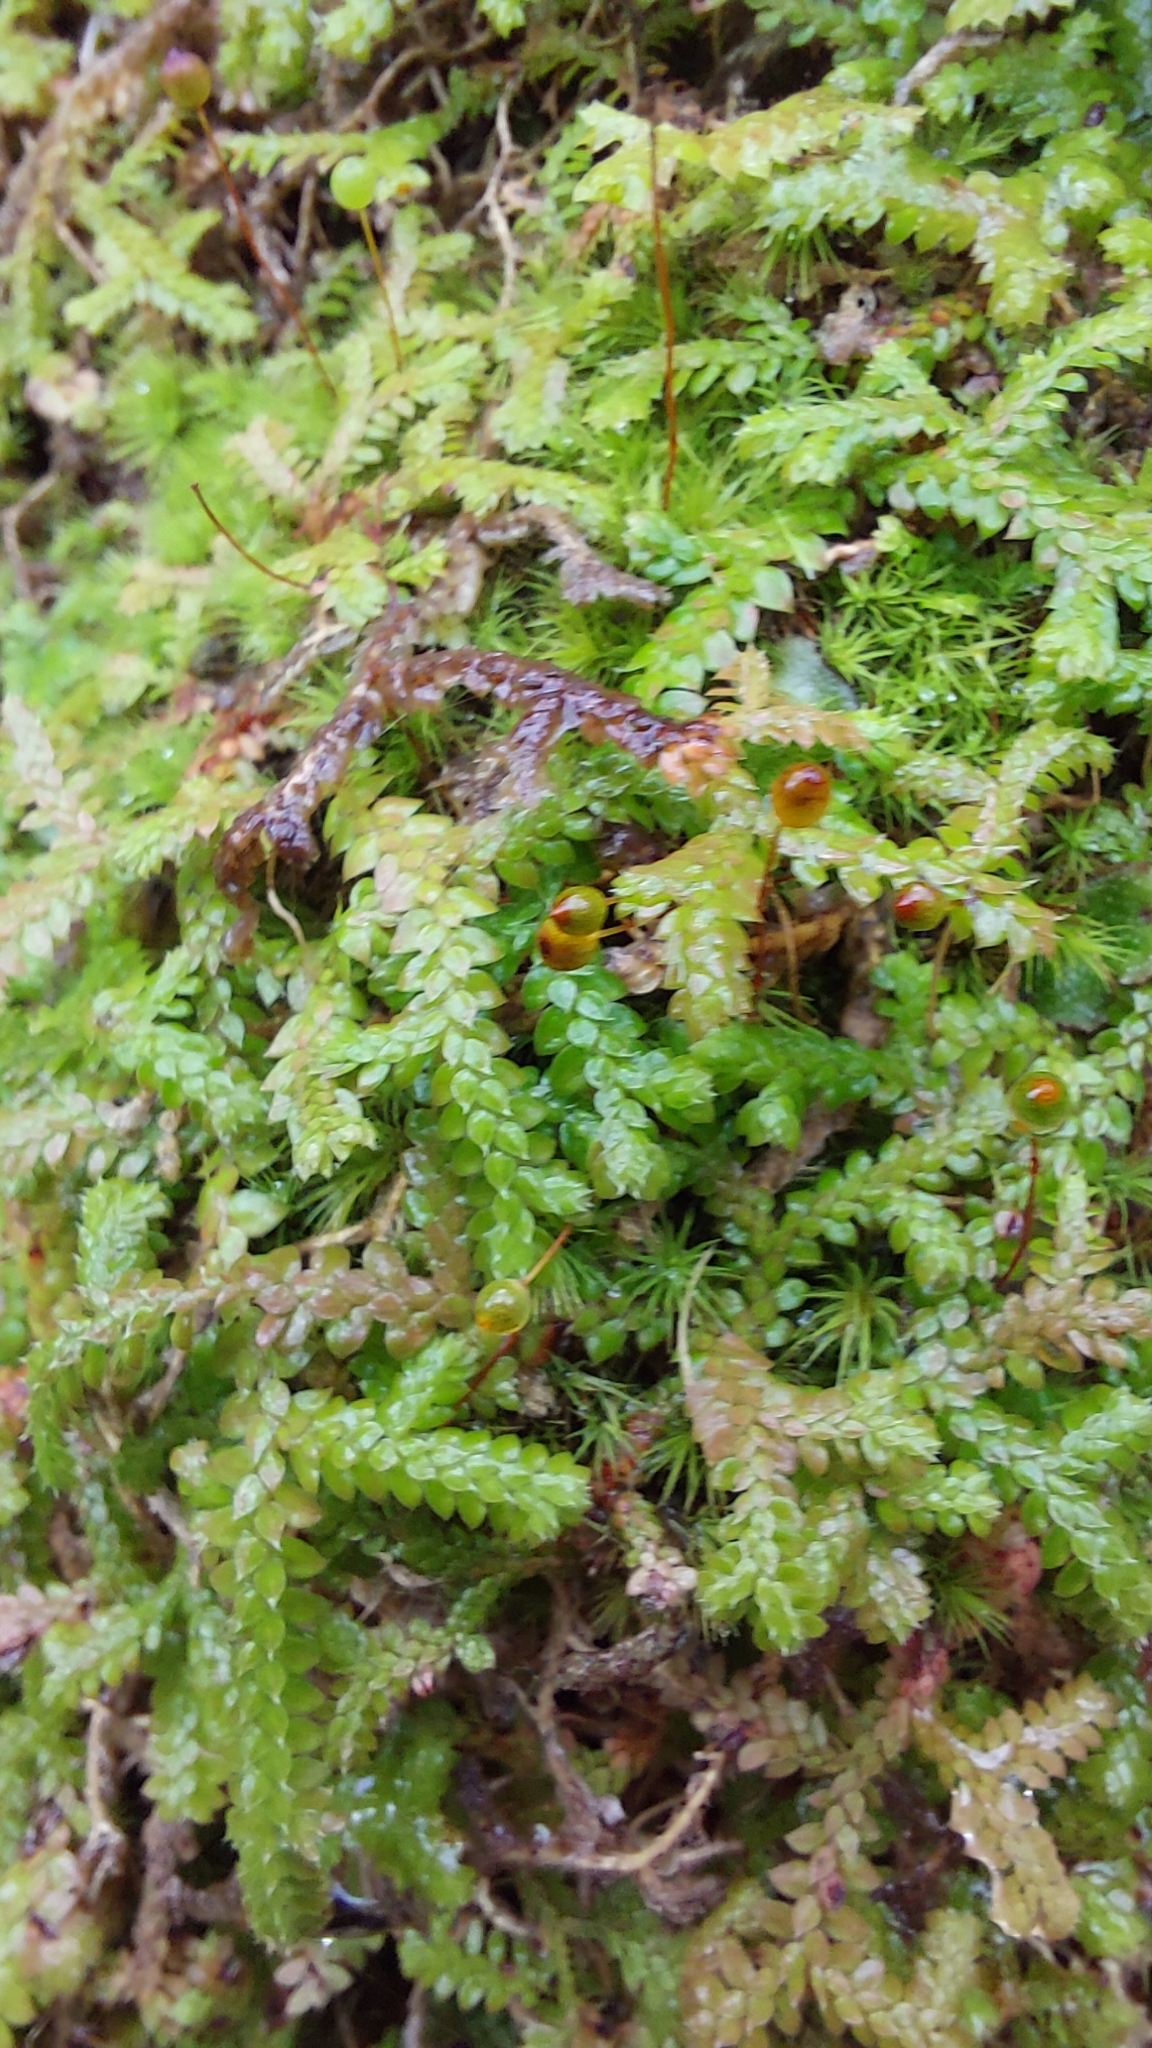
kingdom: Plantae
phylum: Tracheophyta
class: Lycopodiopsida
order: Selaginellales
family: Selaginellaceae
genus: Selaginella
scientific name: Selaginella denticulata
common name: Toothed-leaved clubmoss
